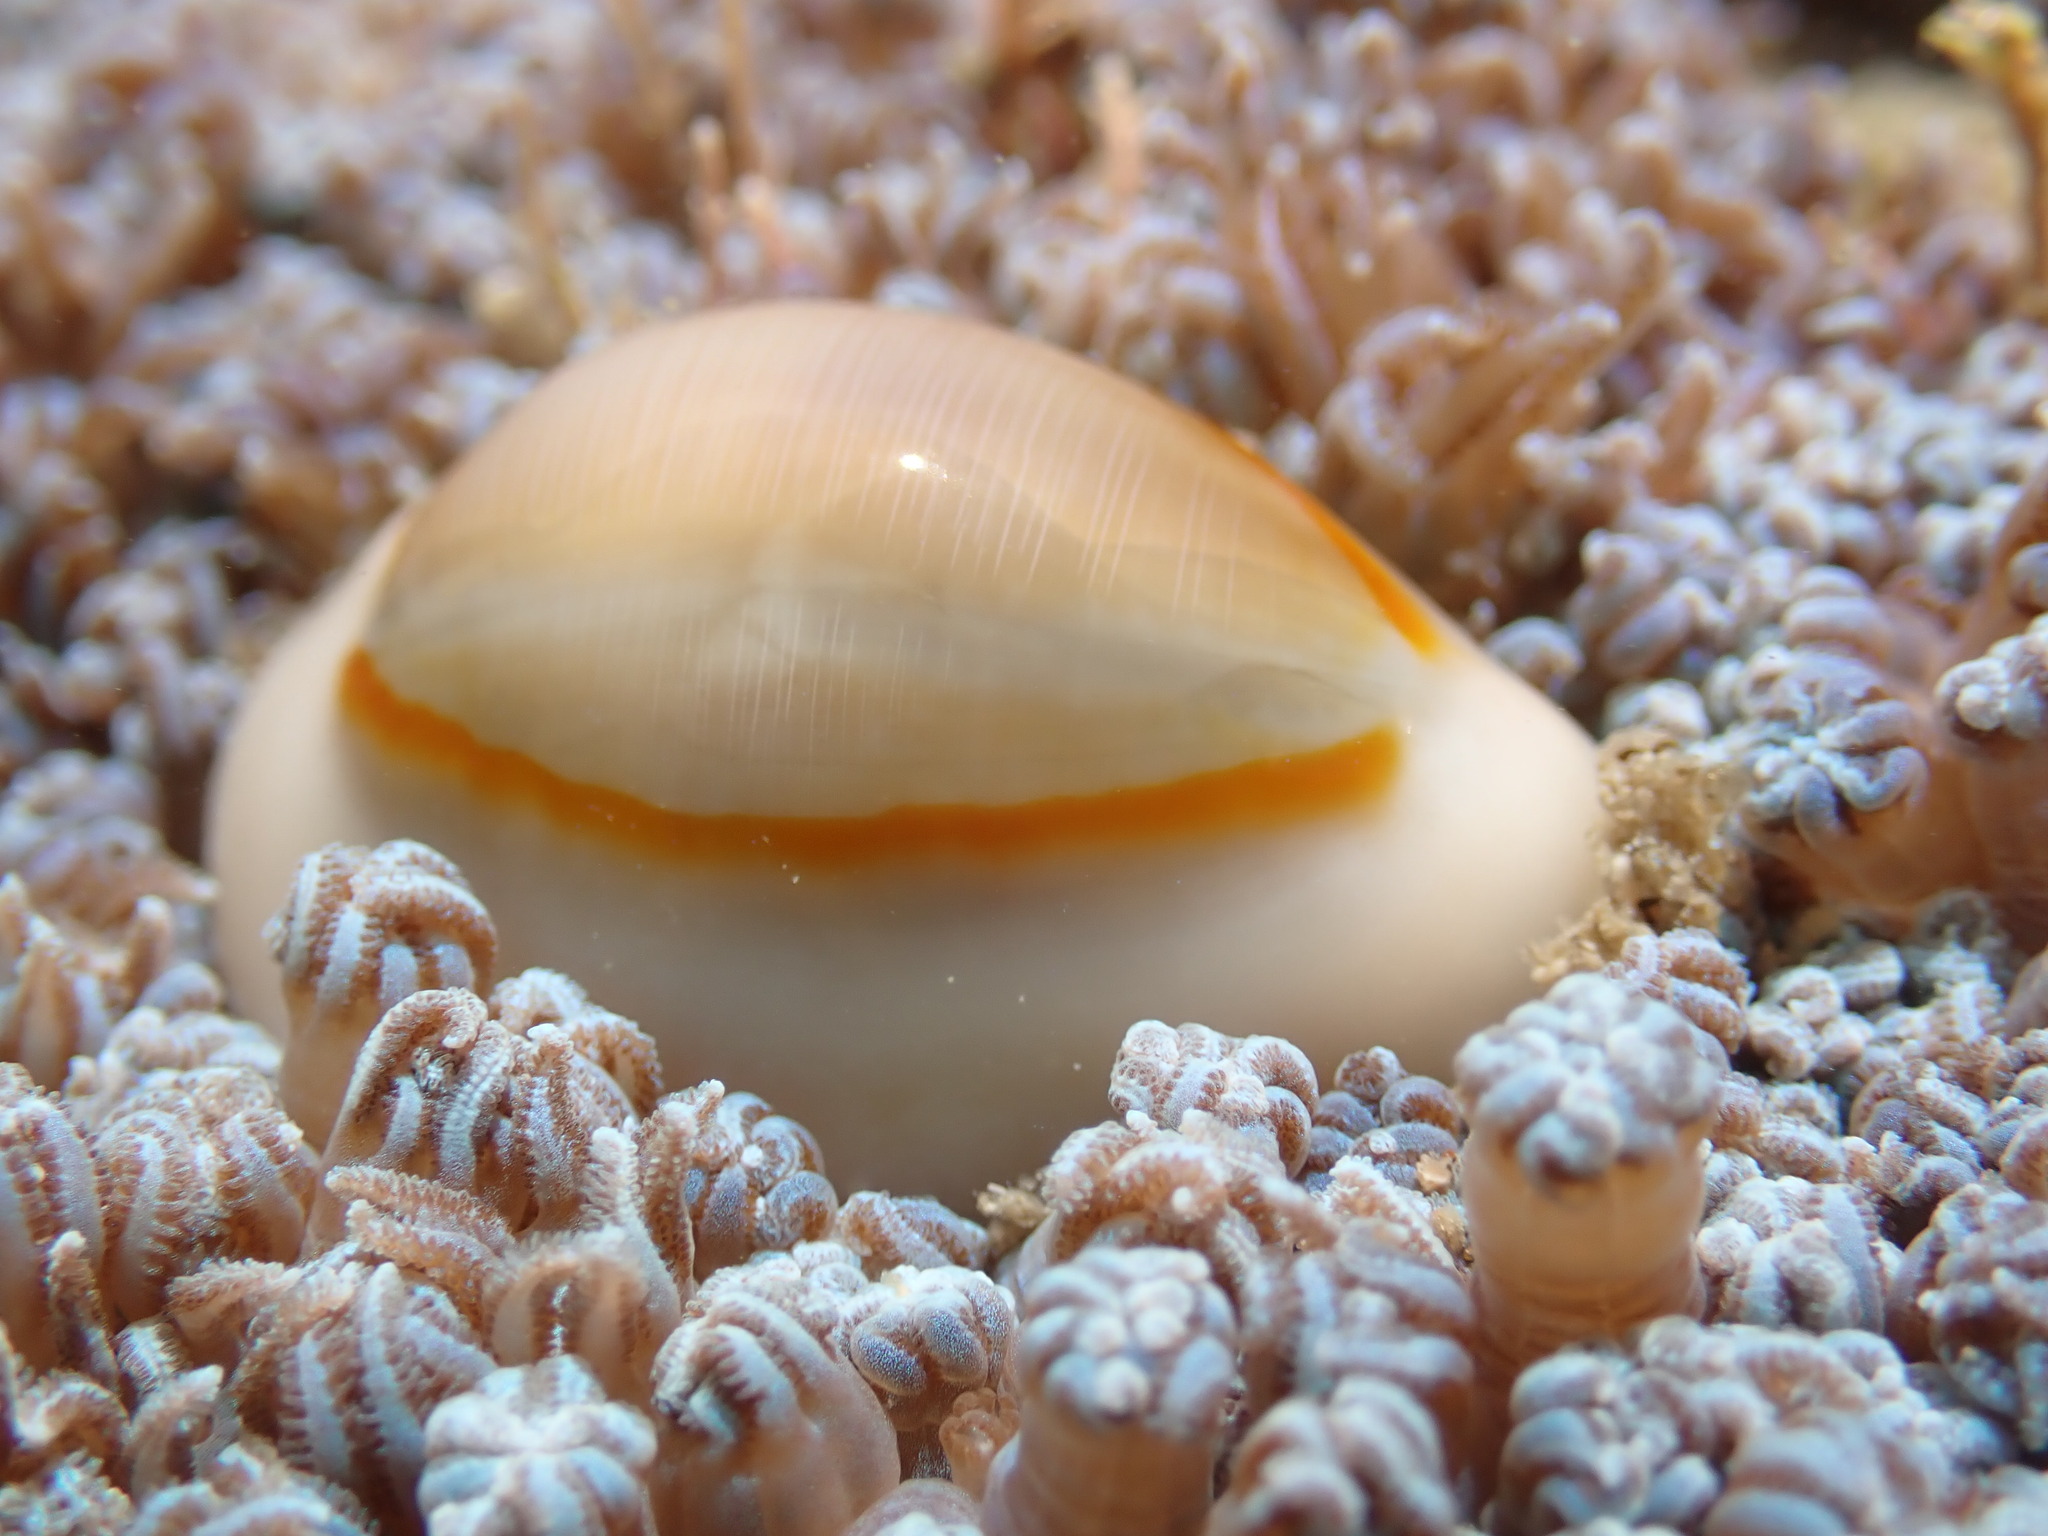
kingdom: Animalia
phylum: Mollusca
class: Gastropoda
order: Littorinimorpha
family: Cypraeidae
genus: Monetaria
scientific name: Monetaria annulus
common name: Ring cowrie
